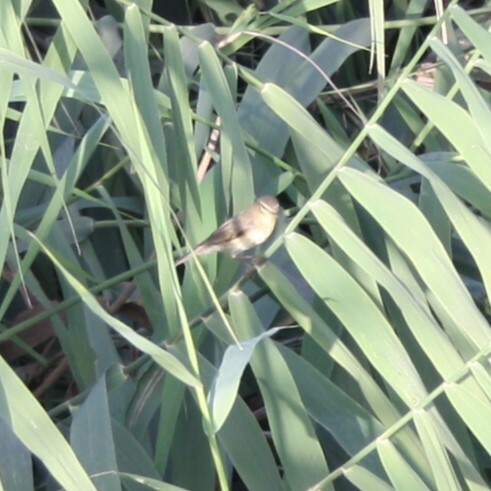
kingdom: Animalia
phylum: Chordata
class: Aves
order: Passeriformes
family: Phylloscopidae
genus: Phylloscopus
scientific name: Phylloscopus trochilus
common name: Willow warbler
